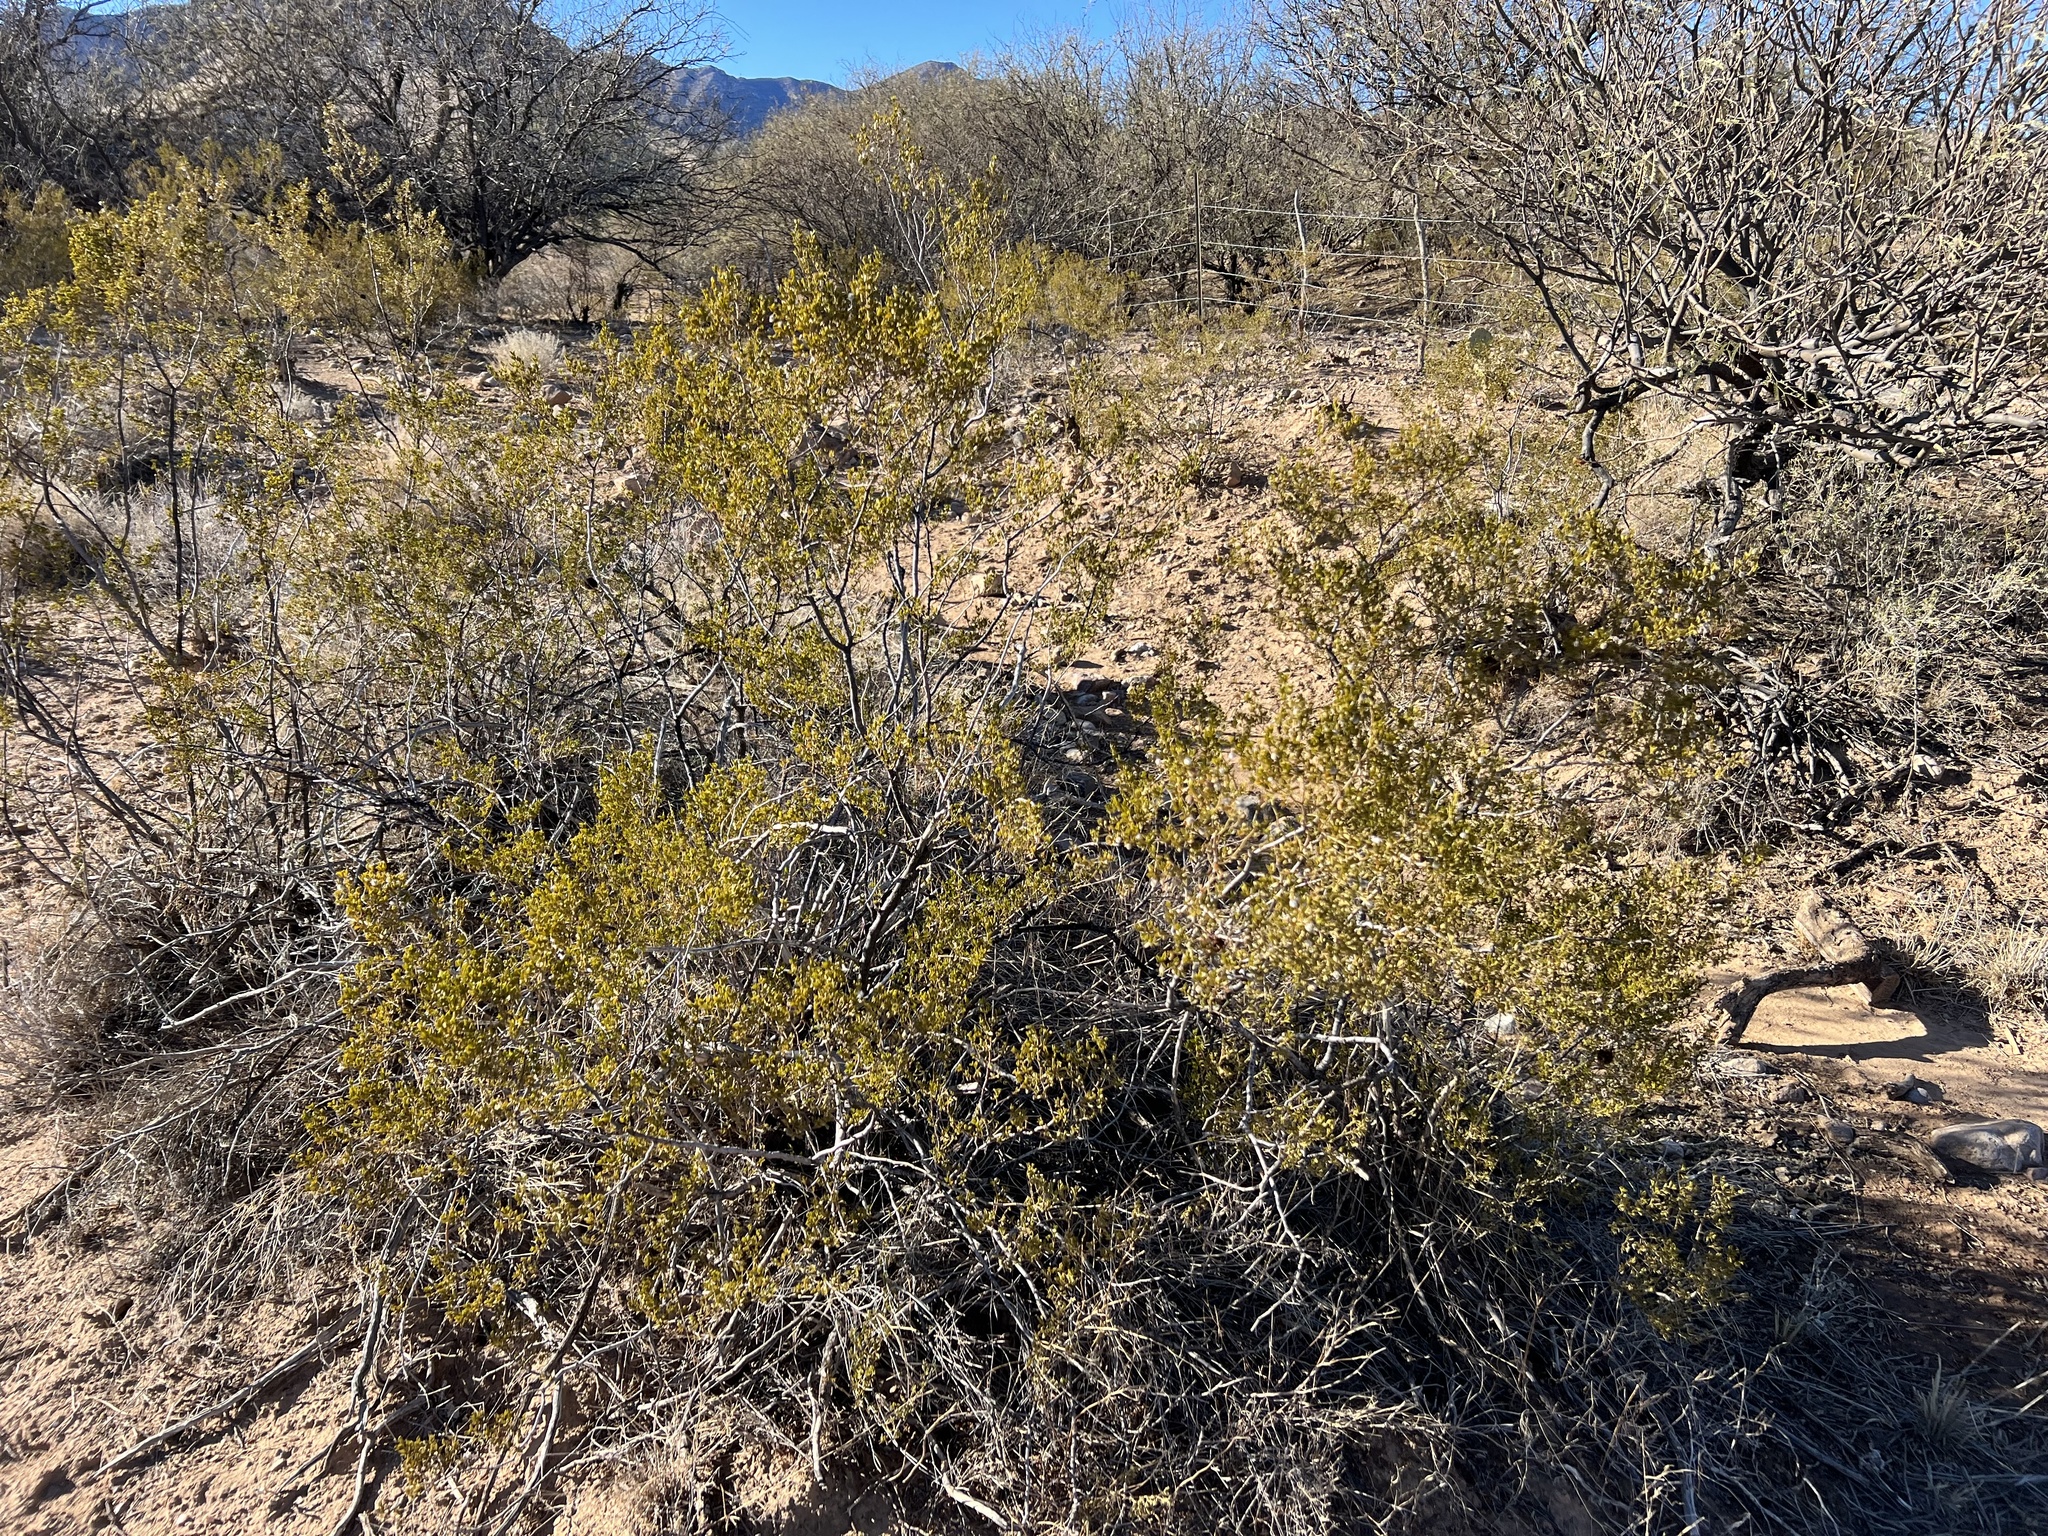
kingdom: Plantae
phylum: Tracheophyta
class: Magnoliopsida
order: Zygophyllales
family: Zygophyllaceae
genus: Larrea
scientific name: Larrea tridentata
